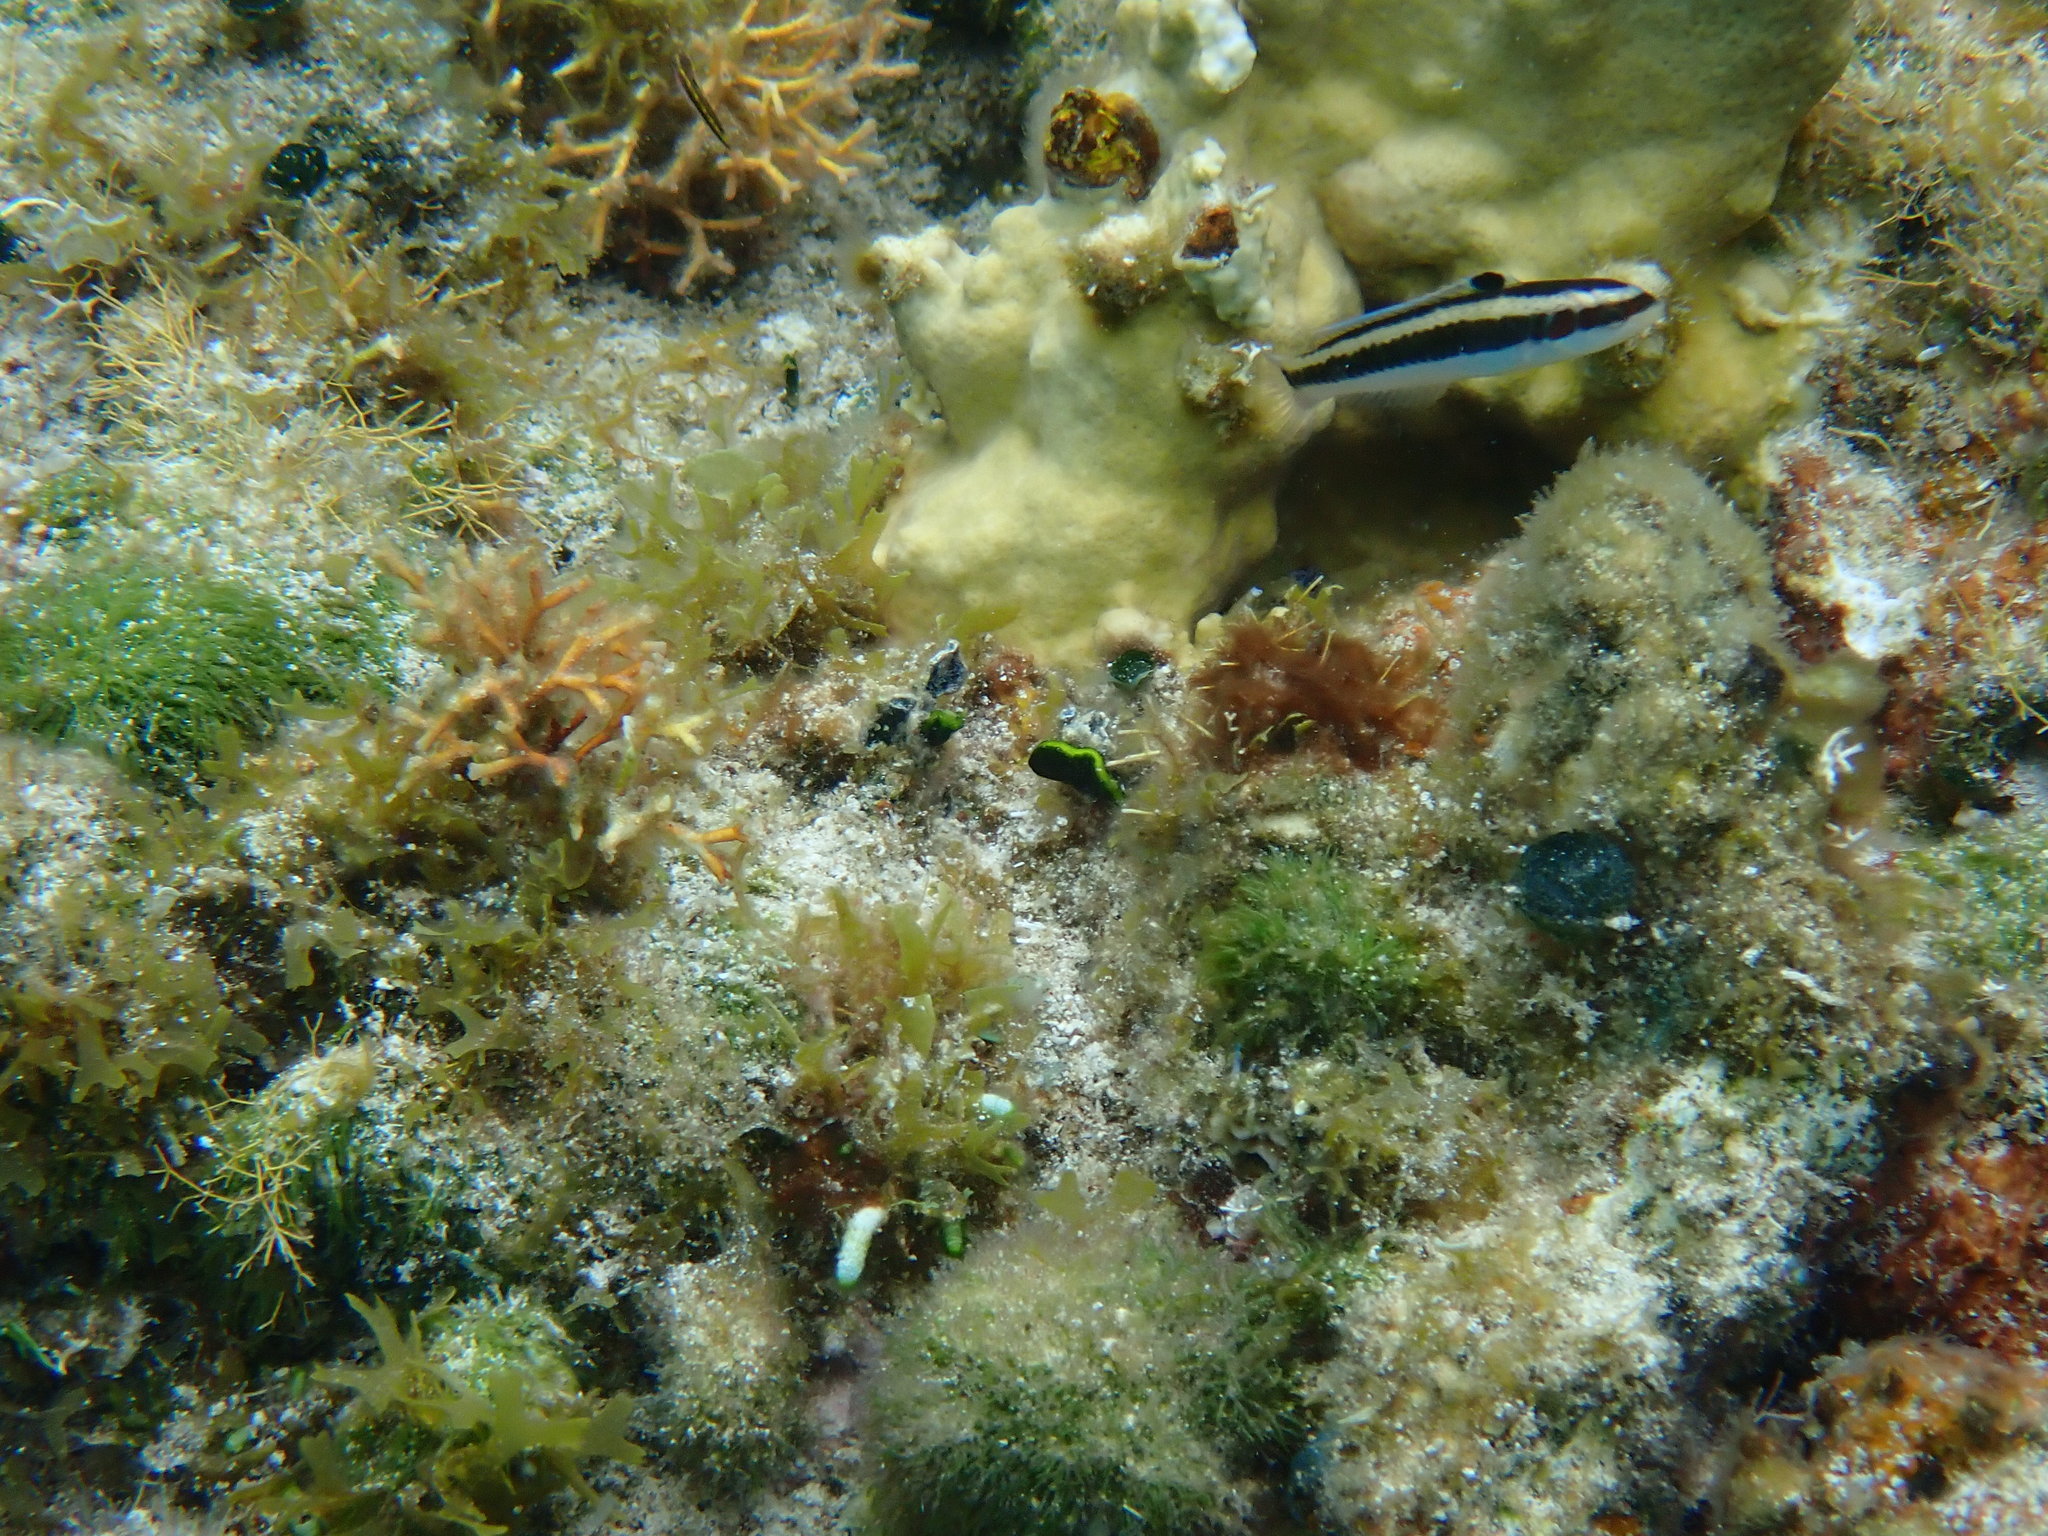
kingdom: Animalia
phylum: Chordata
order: Perciformes
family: Labridae
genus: Thalassoma
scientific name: Thalassoma bifasciatum
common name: Bluehead wrasse
